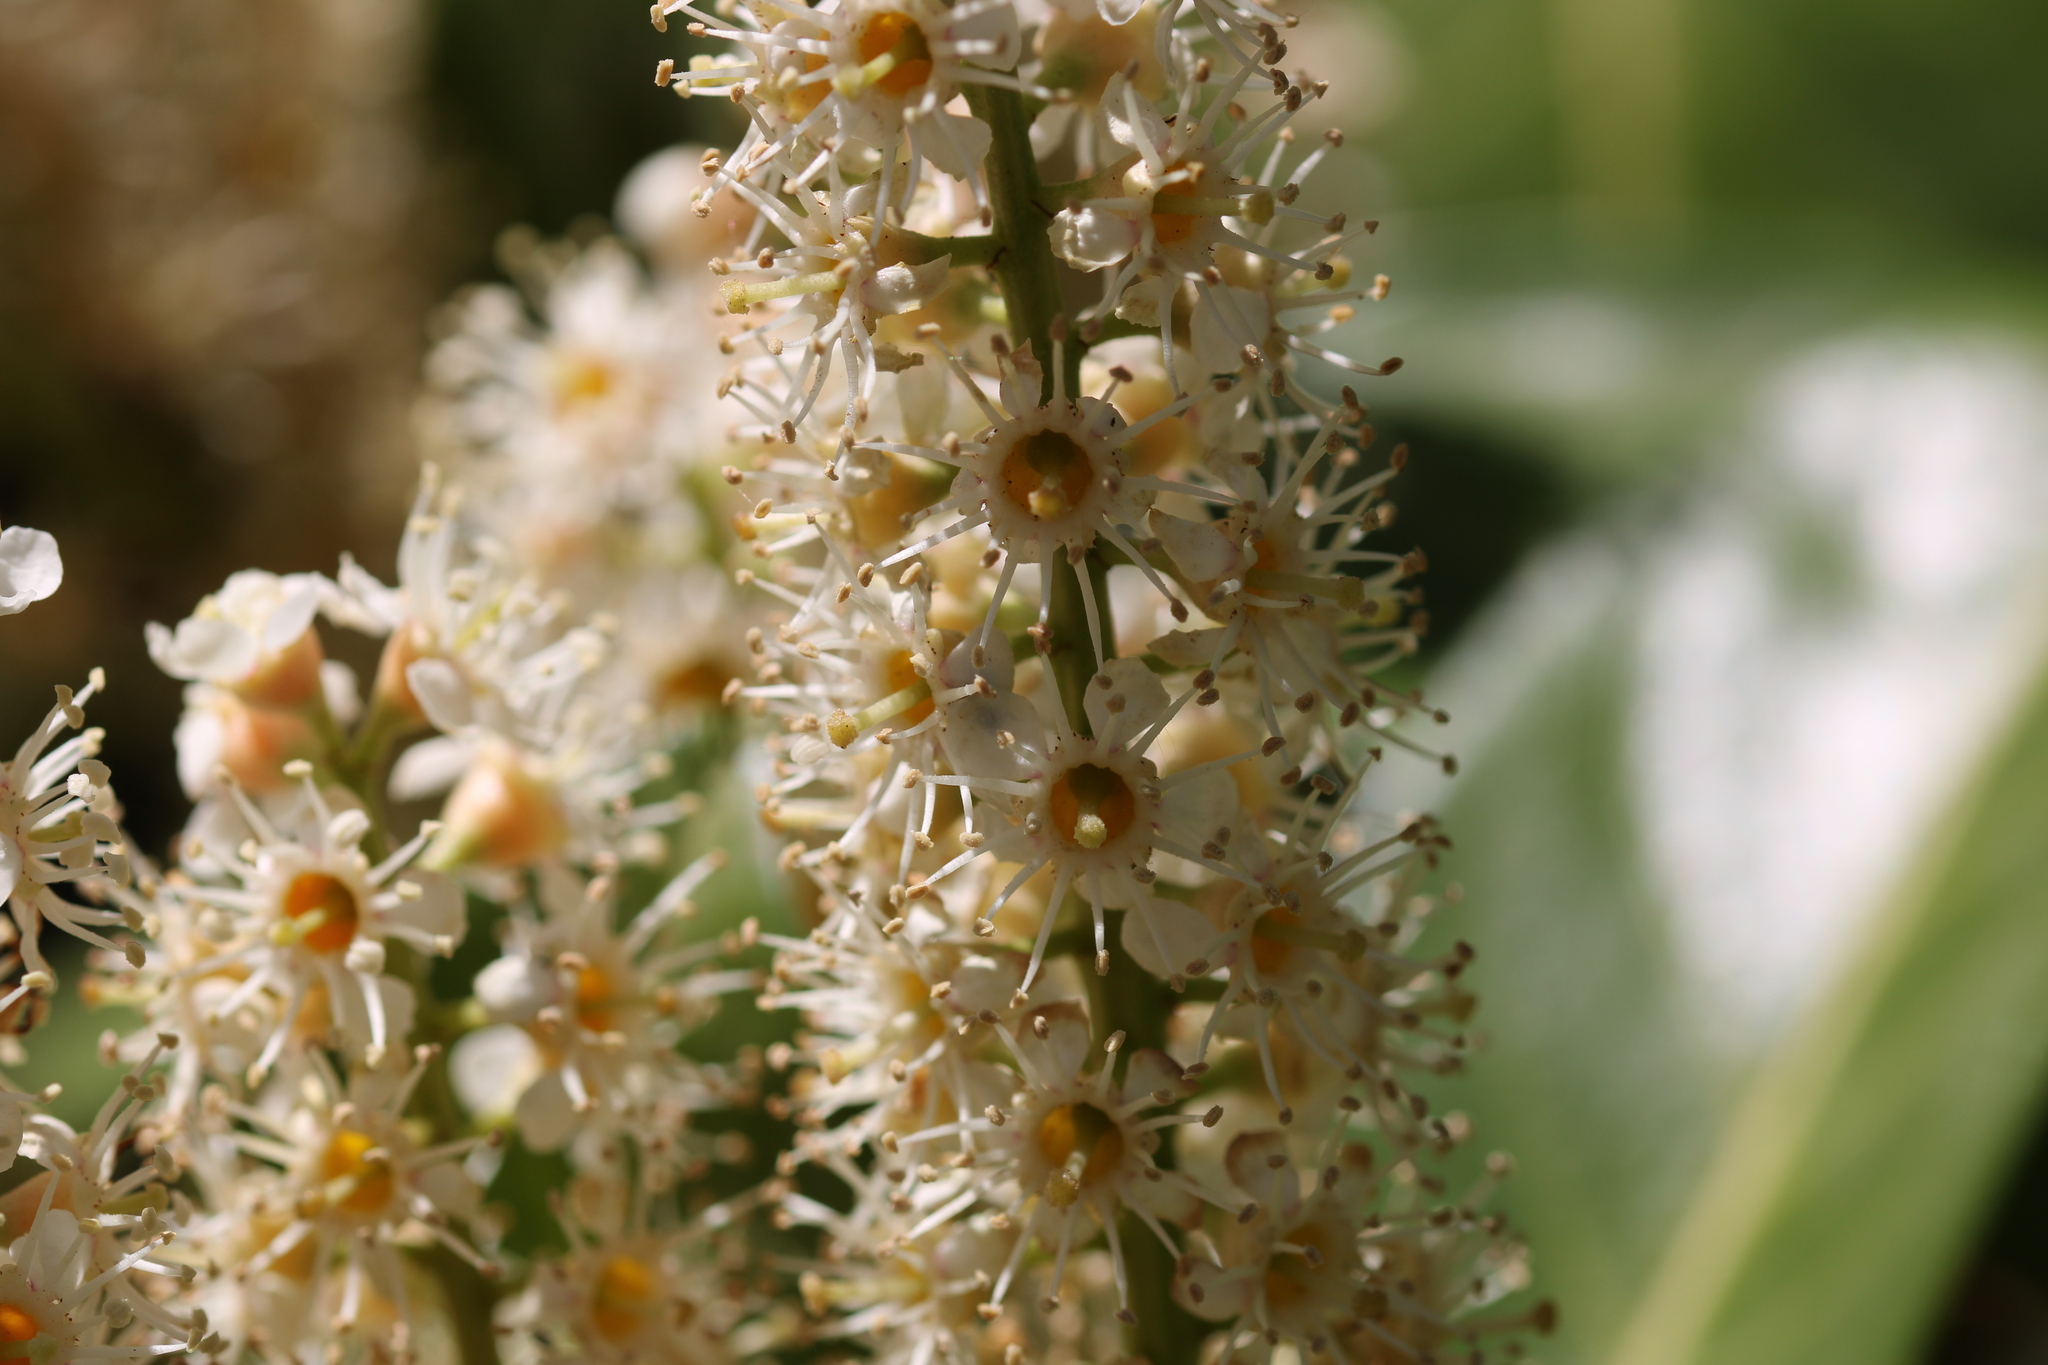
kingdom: Plantae
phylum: Tracheophyta
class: Magnoliopsida
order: Rosales
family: Rosaceae
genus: Prunus
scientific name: Prunus laurocerasus
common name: Cherry laurel
